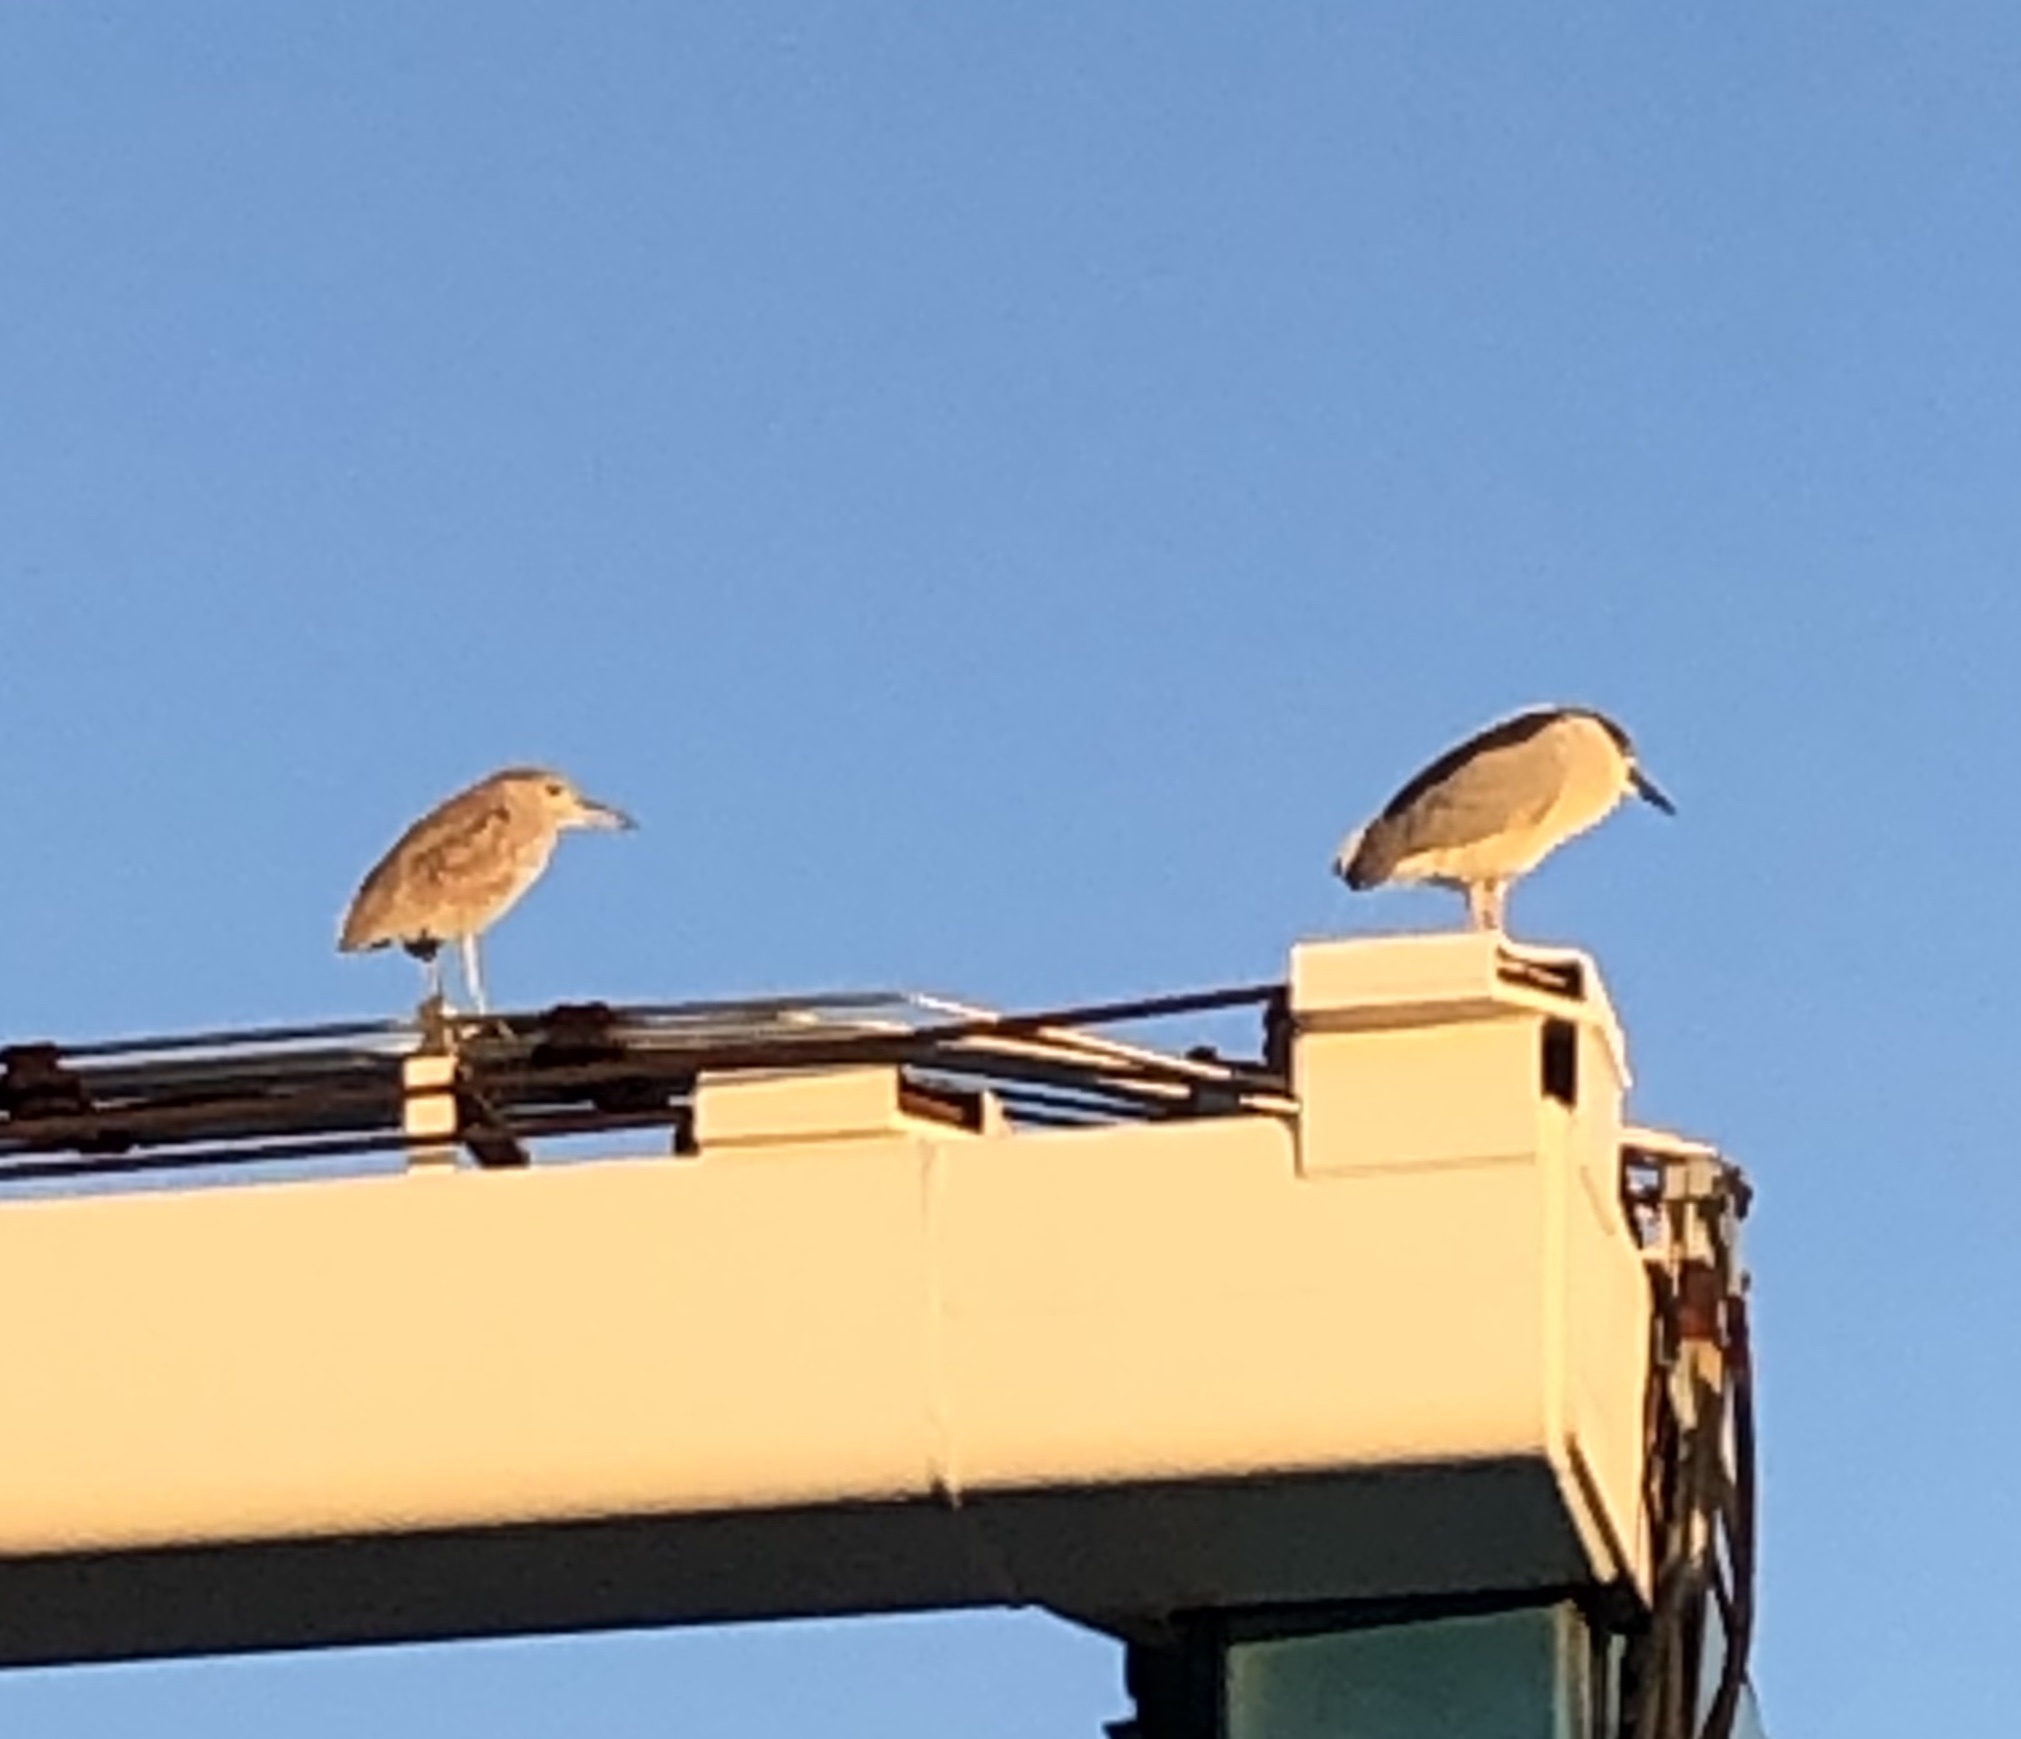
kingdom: Animalia
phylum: Chordata
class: Aves
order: Pelecaniformes
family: Ardeidae
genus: Nycticorax
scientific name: Nycticorax nycticorax
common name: Black-crowned night heron
